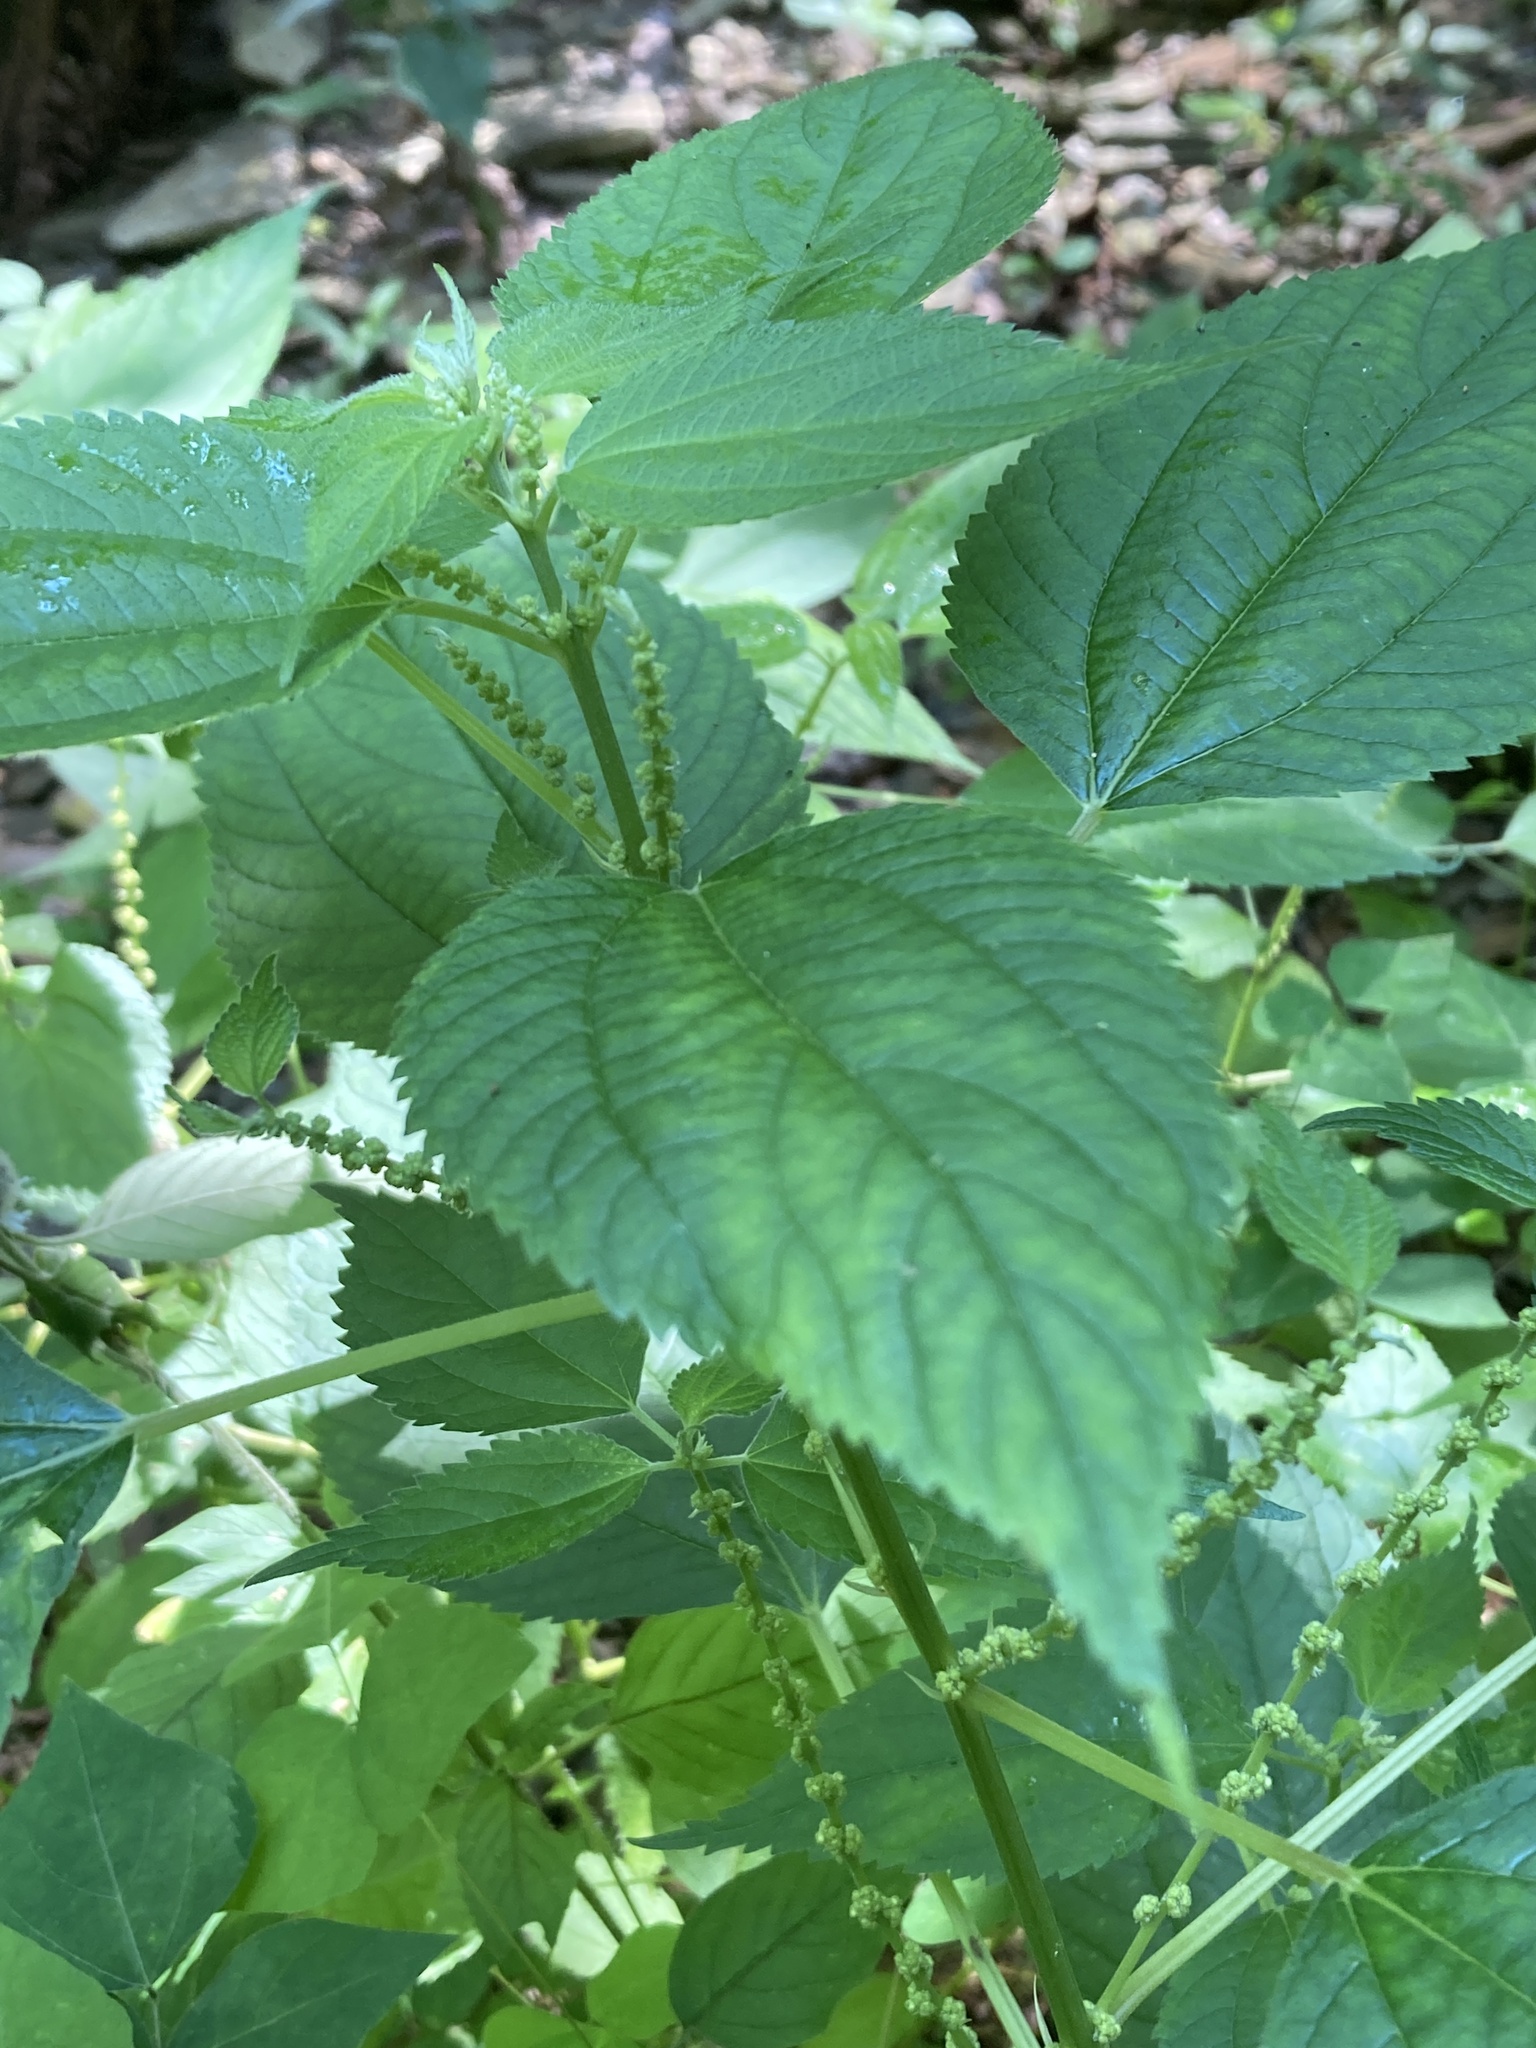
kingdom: Plantae
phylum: Tracheophyta
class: Magnoliopsida
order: Rosales
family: Urticaceae
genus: Boehmeria
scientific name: Boehmeria cylindrica
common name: Bog-hemp
